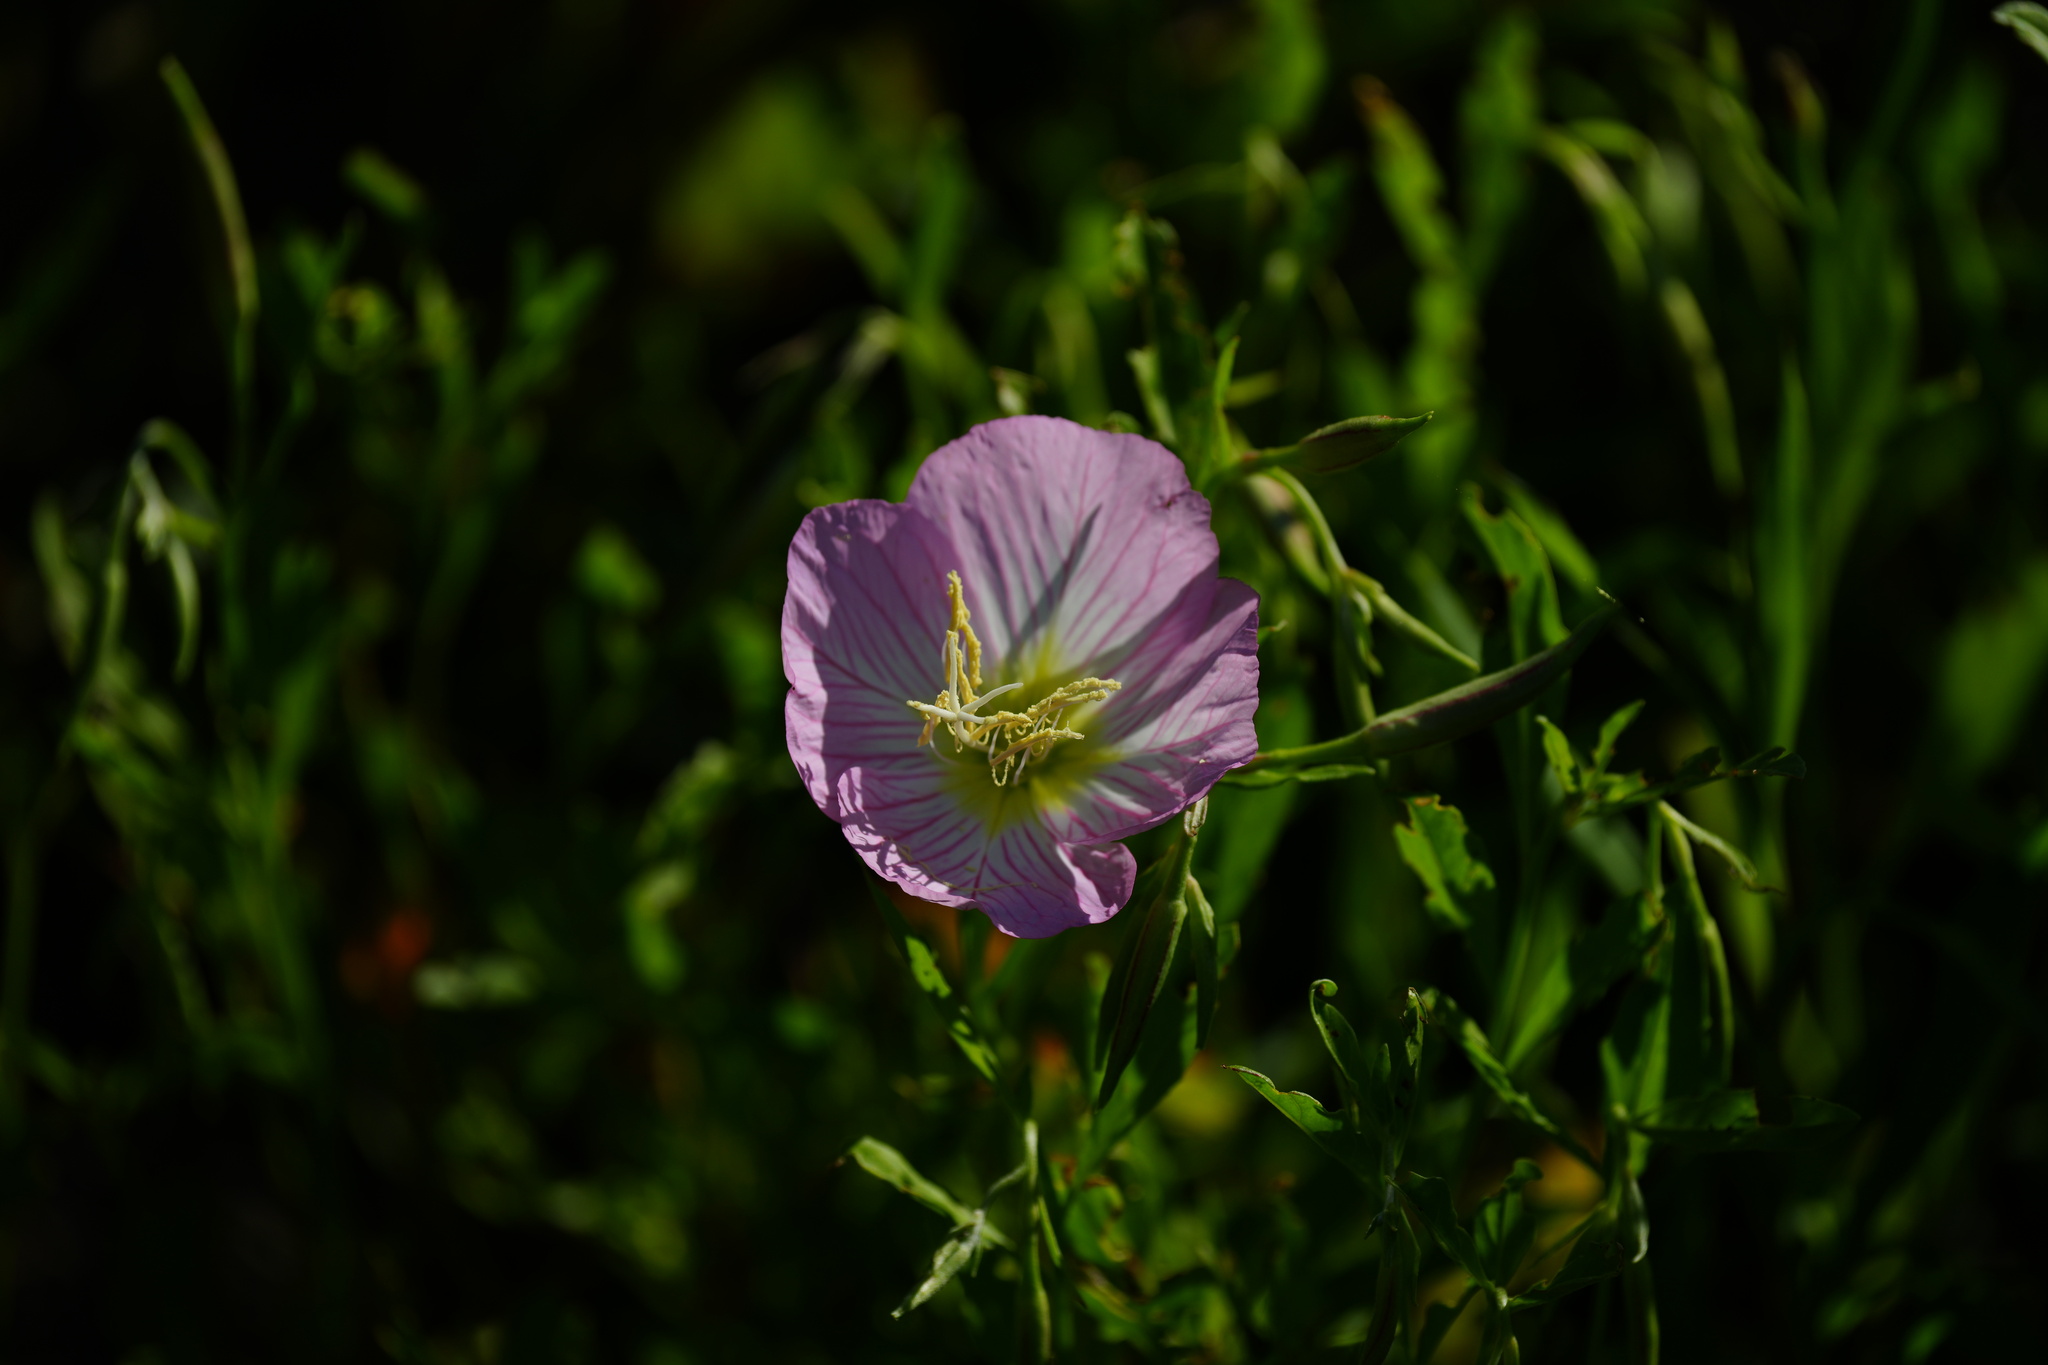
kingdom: Plantae
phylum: Tracheophyta
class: Magnoliopsida
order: Myrtales
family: Onagraceae
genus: Oenothera
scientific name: Oenothera speciosa
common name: White evening-primrose
